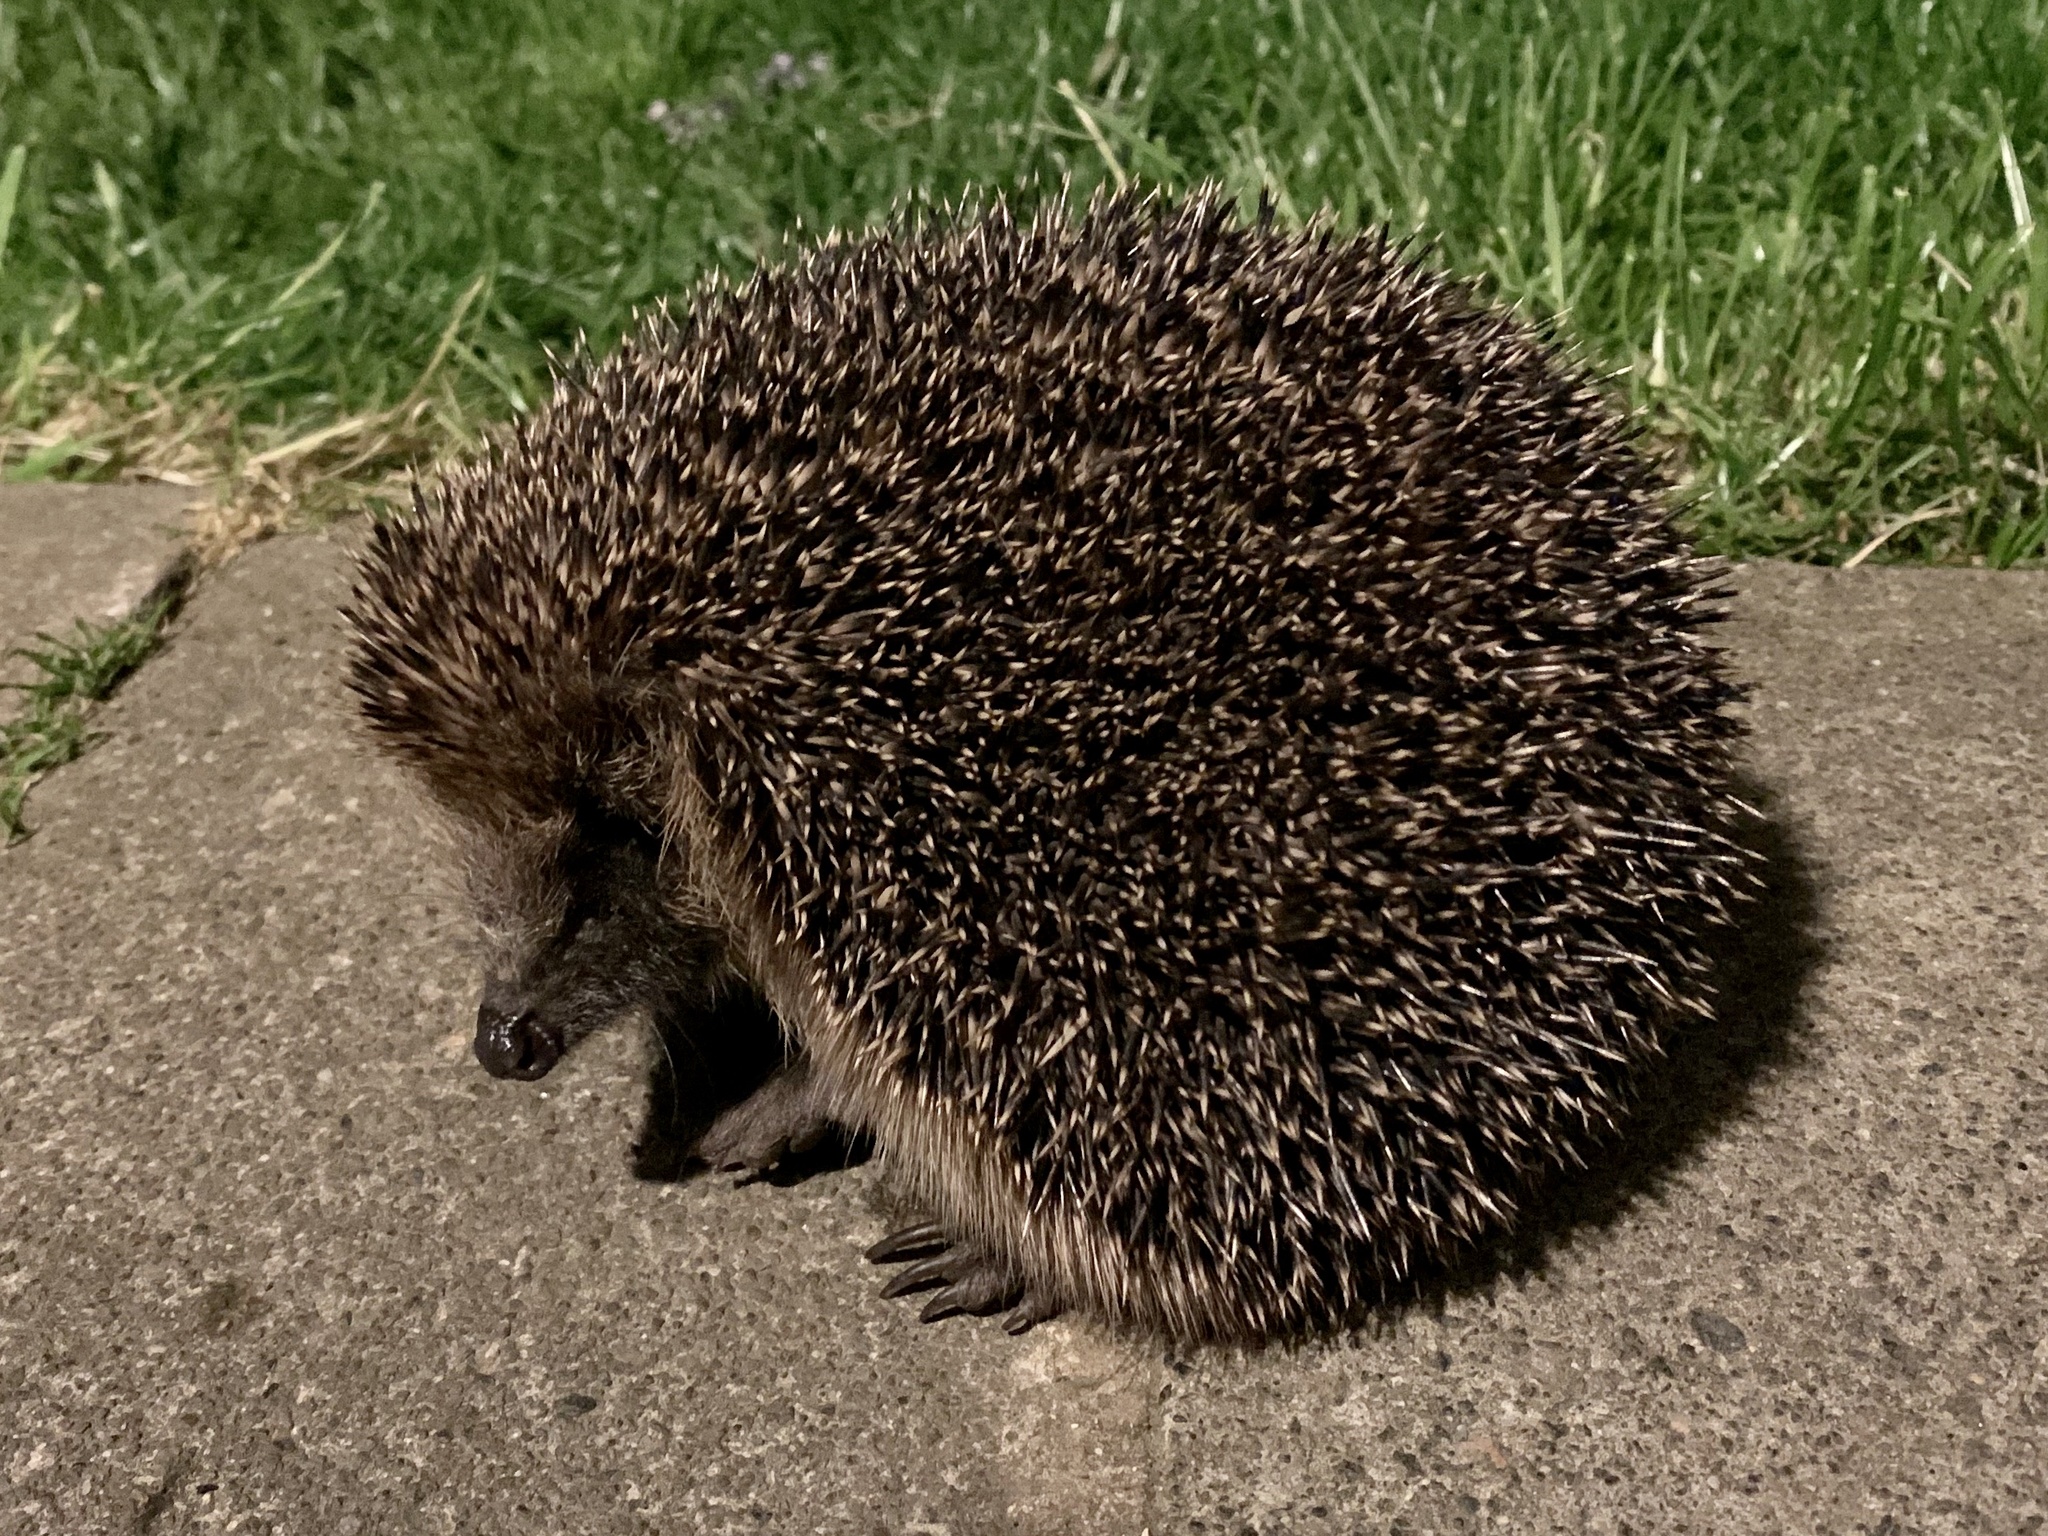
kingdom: Animalia
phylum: Chordata
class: Mammalia
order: Erinaceomorpha
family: Erinaceidae
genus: Erinaceus
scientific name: Erinaceus europaeus
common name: West european hedgehog
